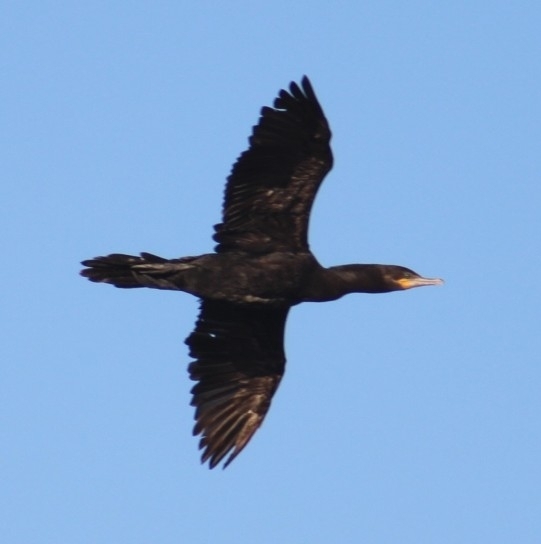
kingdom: Animalia
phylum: Chordata
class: Aves
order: Suliformes
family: Phalacrocoracidae
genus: Phalacrocorax
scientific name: Phalacrocorax auritus
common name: Double-crested cormorant
